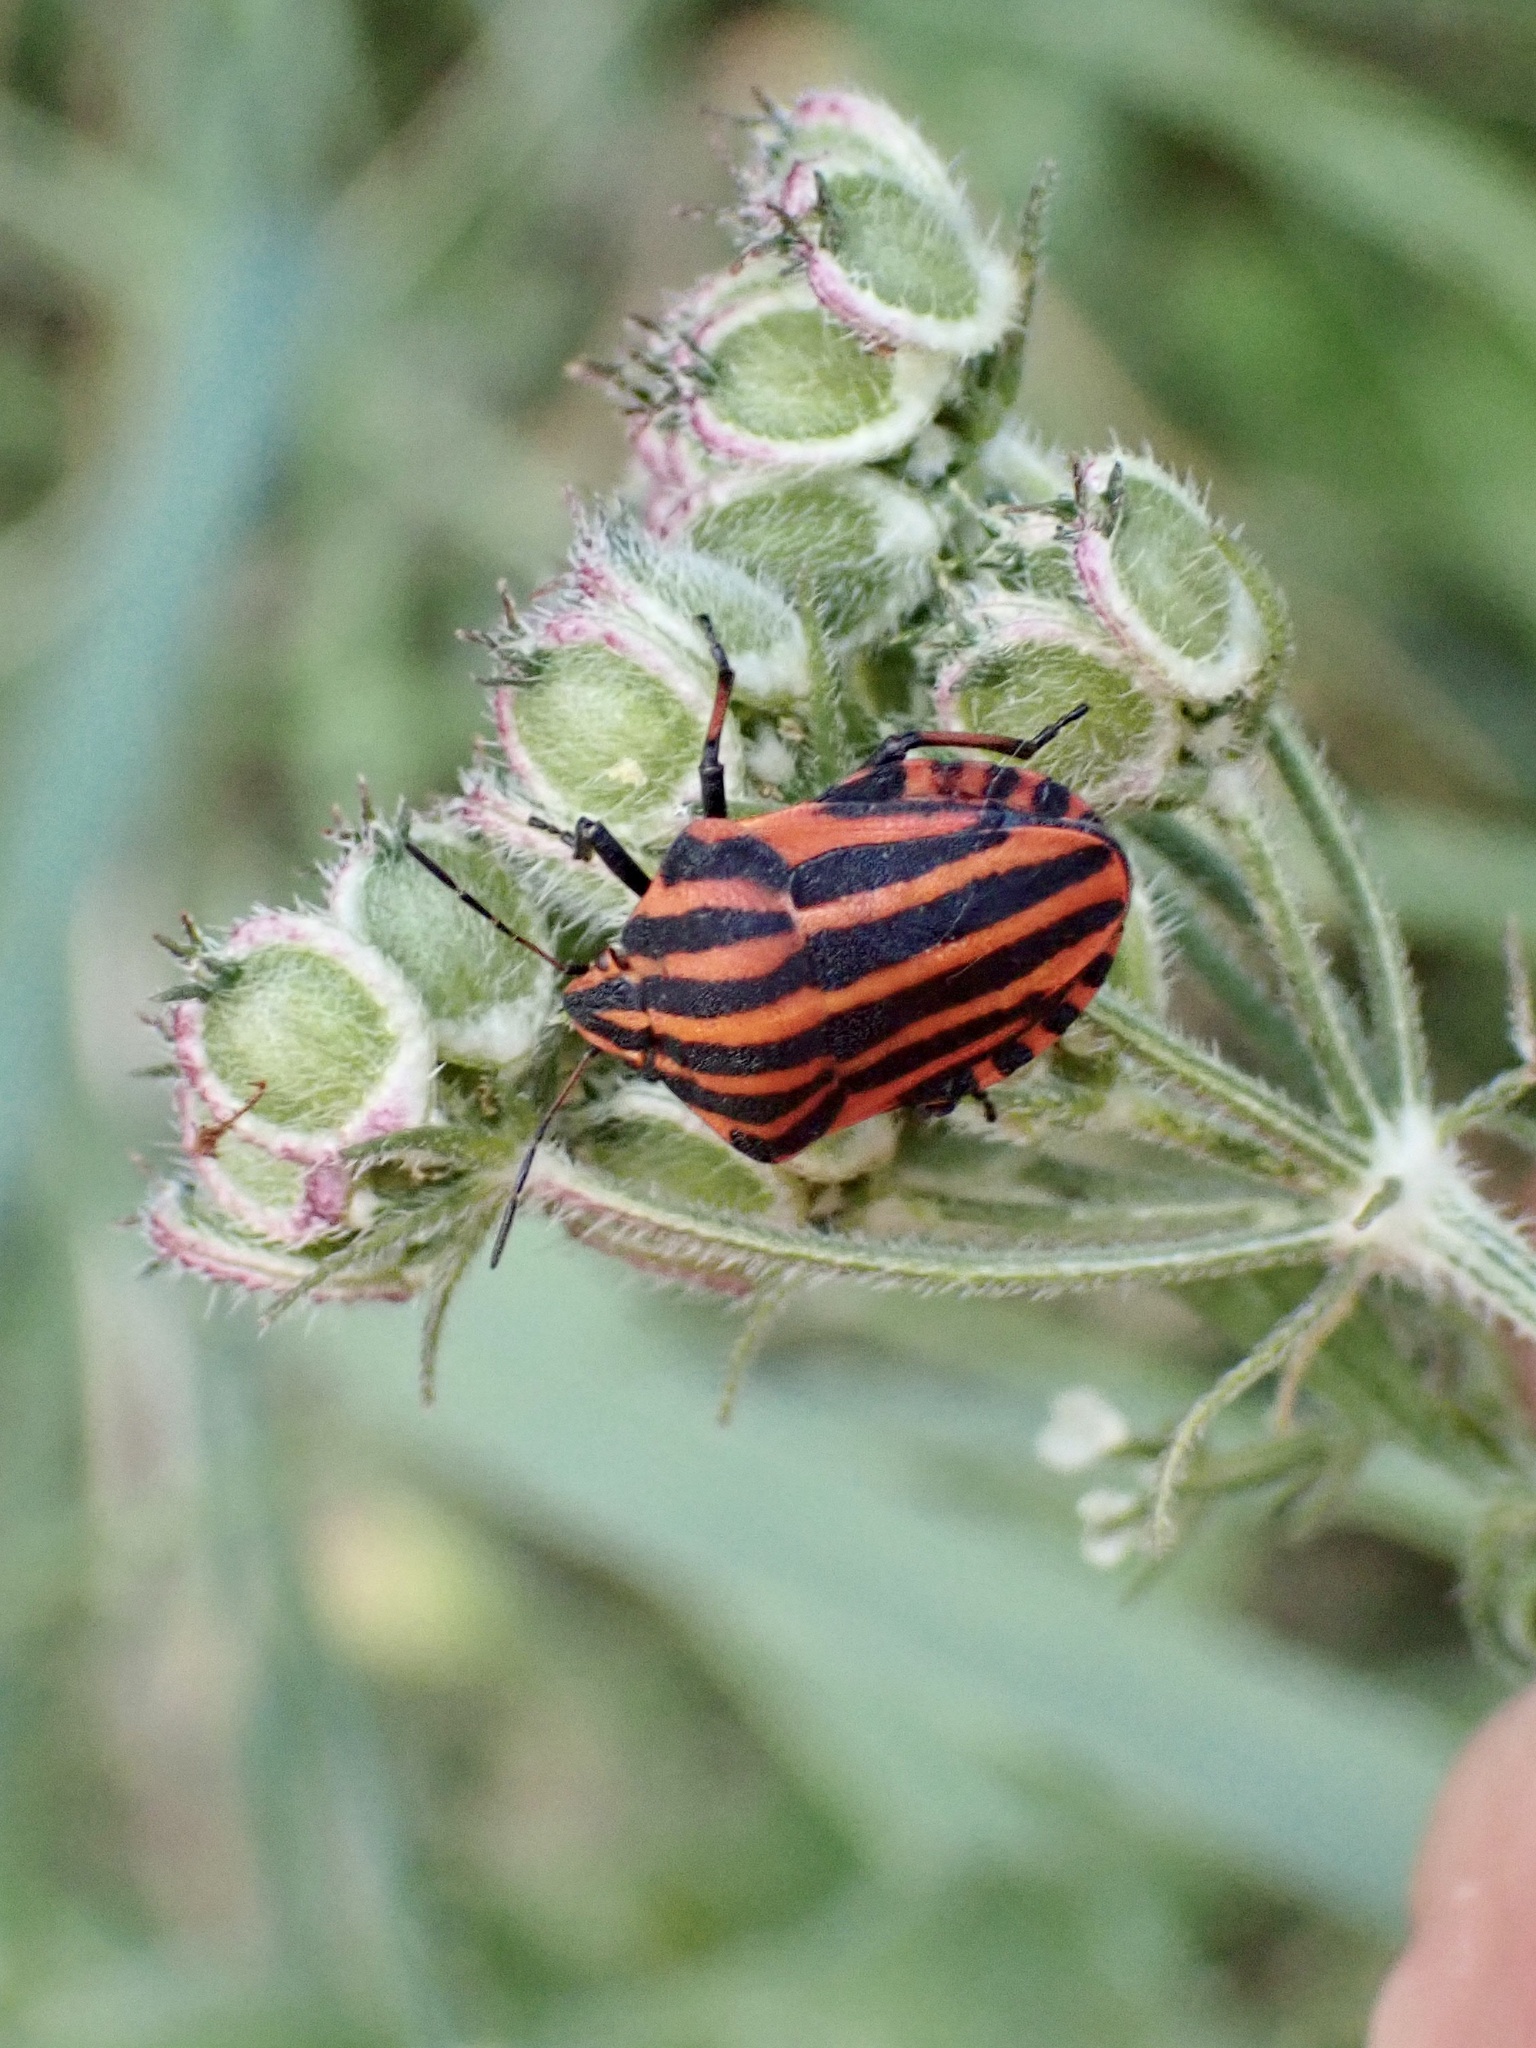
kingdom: Animalia
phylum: Arthropoda
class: Insecta
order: Hemiptera
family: Pentatomidae
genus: Graphosoma
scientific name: Graphosoma italicum
